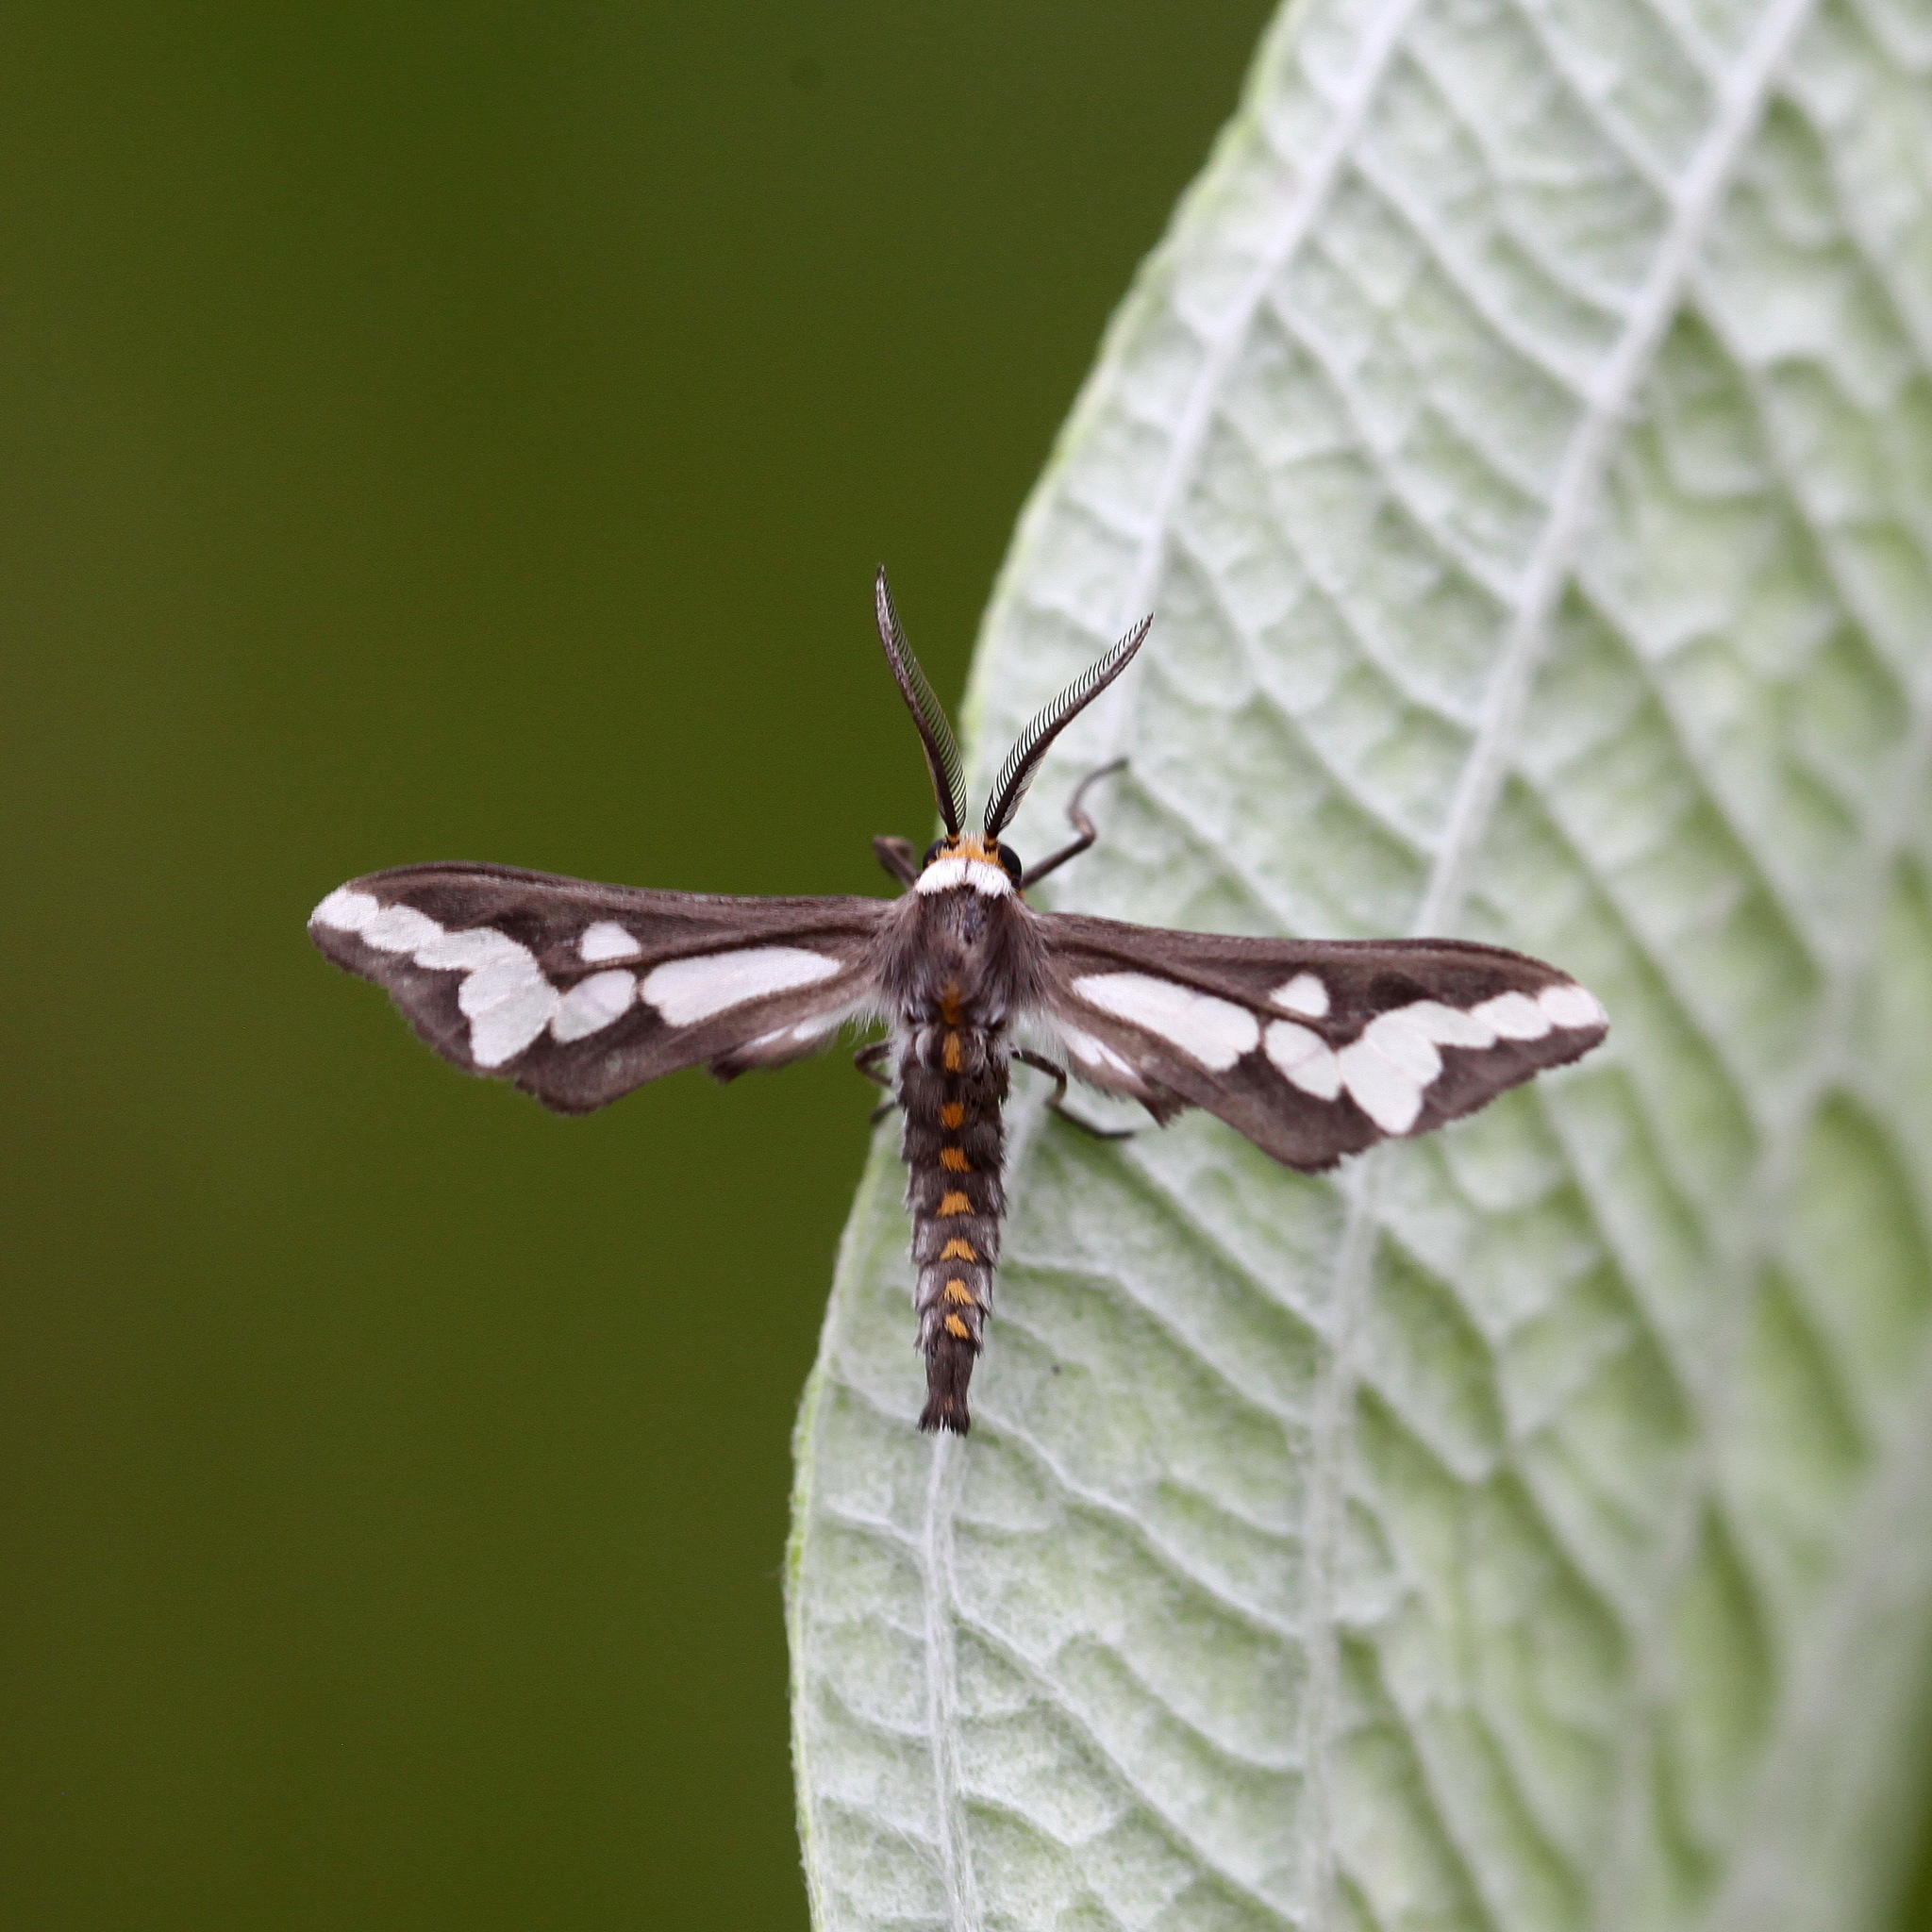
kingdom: Animalia
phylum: Arthropoda
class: Insecta
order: Lepidoptera
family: Erebidae
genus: Thyretes
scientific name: Thyretes caffra
